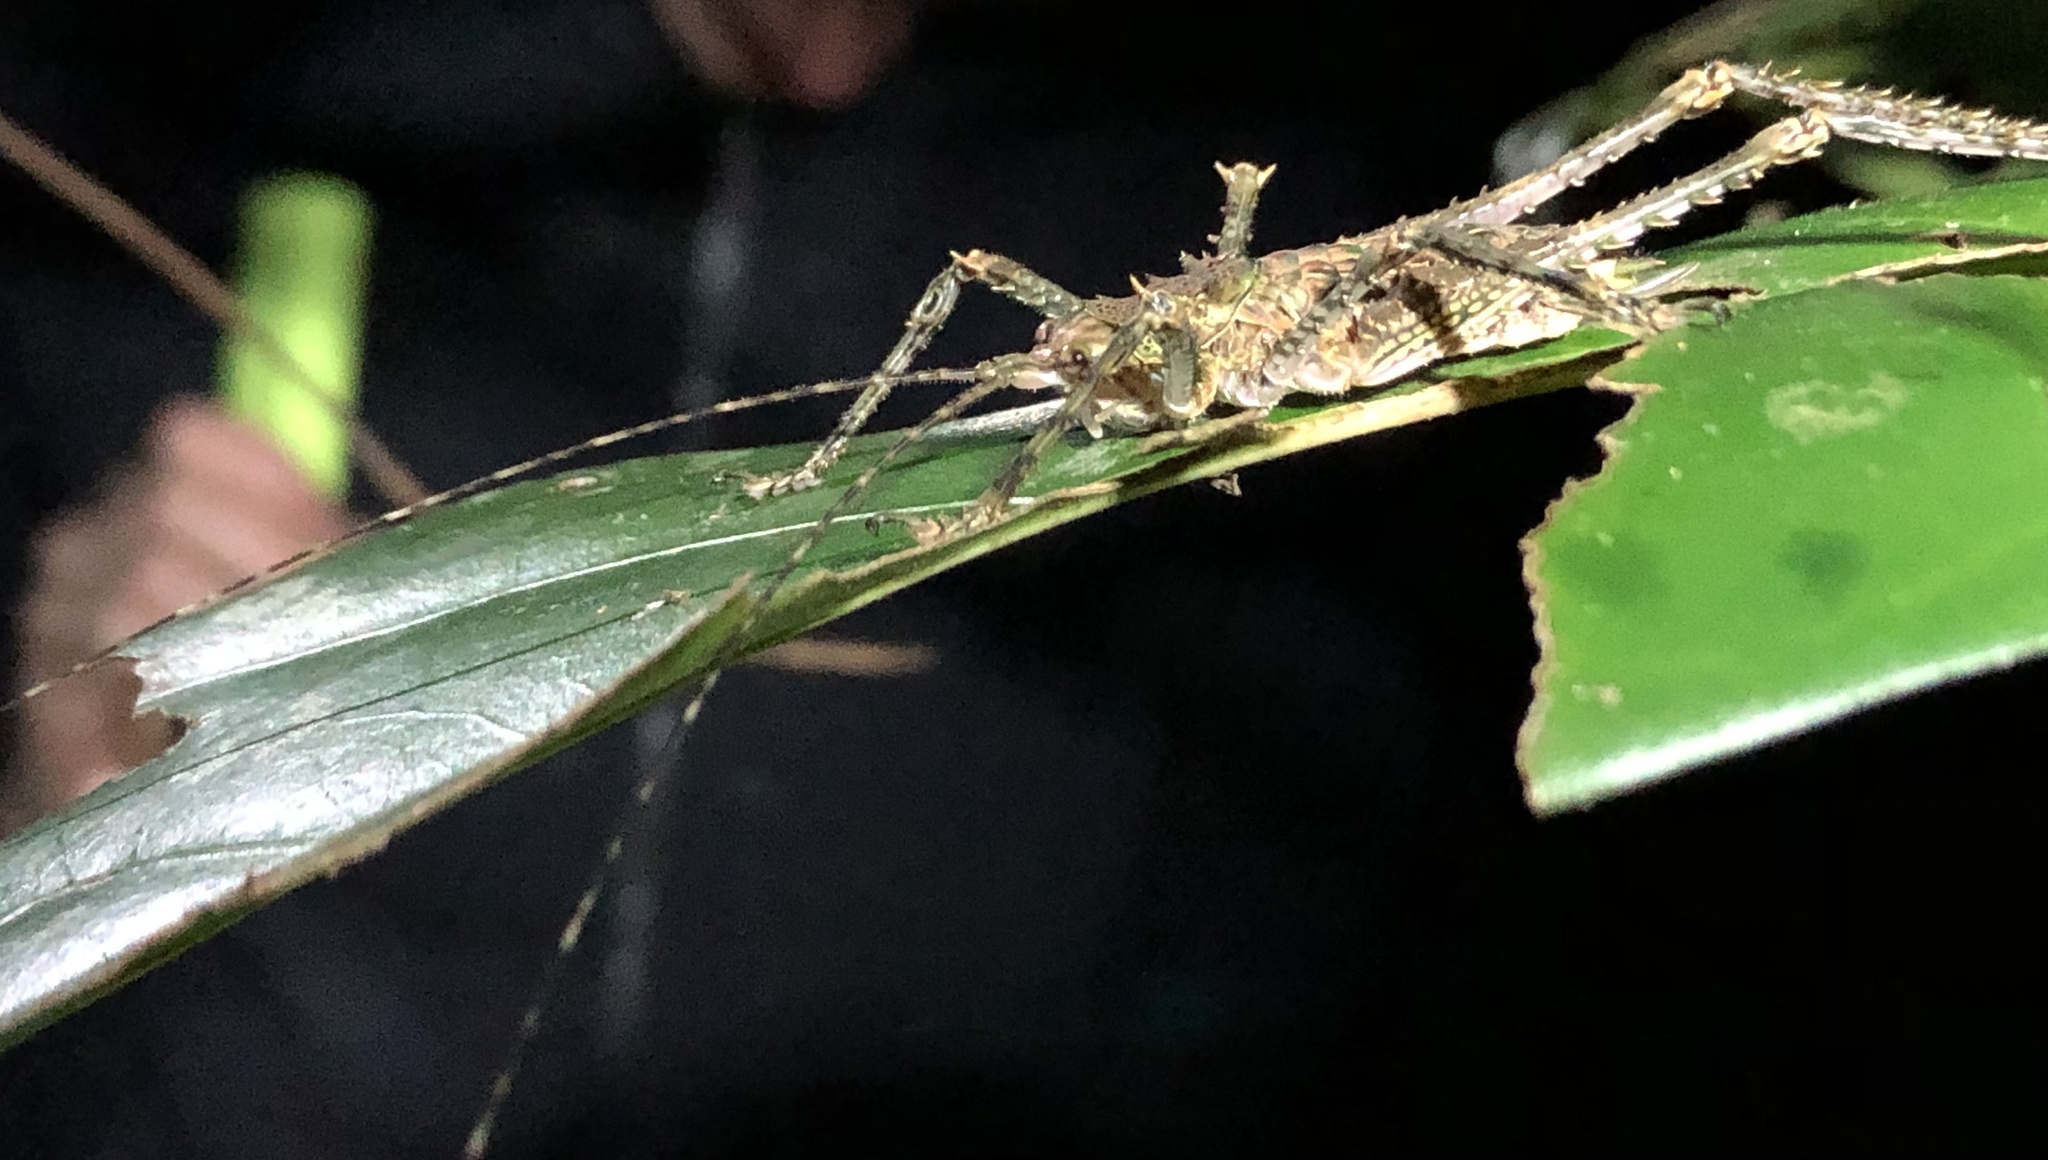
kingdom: Animalia
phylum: Arthropoda
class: Insecta
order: Orthoptera
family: Tettigoniidae
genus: Phricta
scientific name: Phricta spinosa
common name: Giant spiny forest katydid
